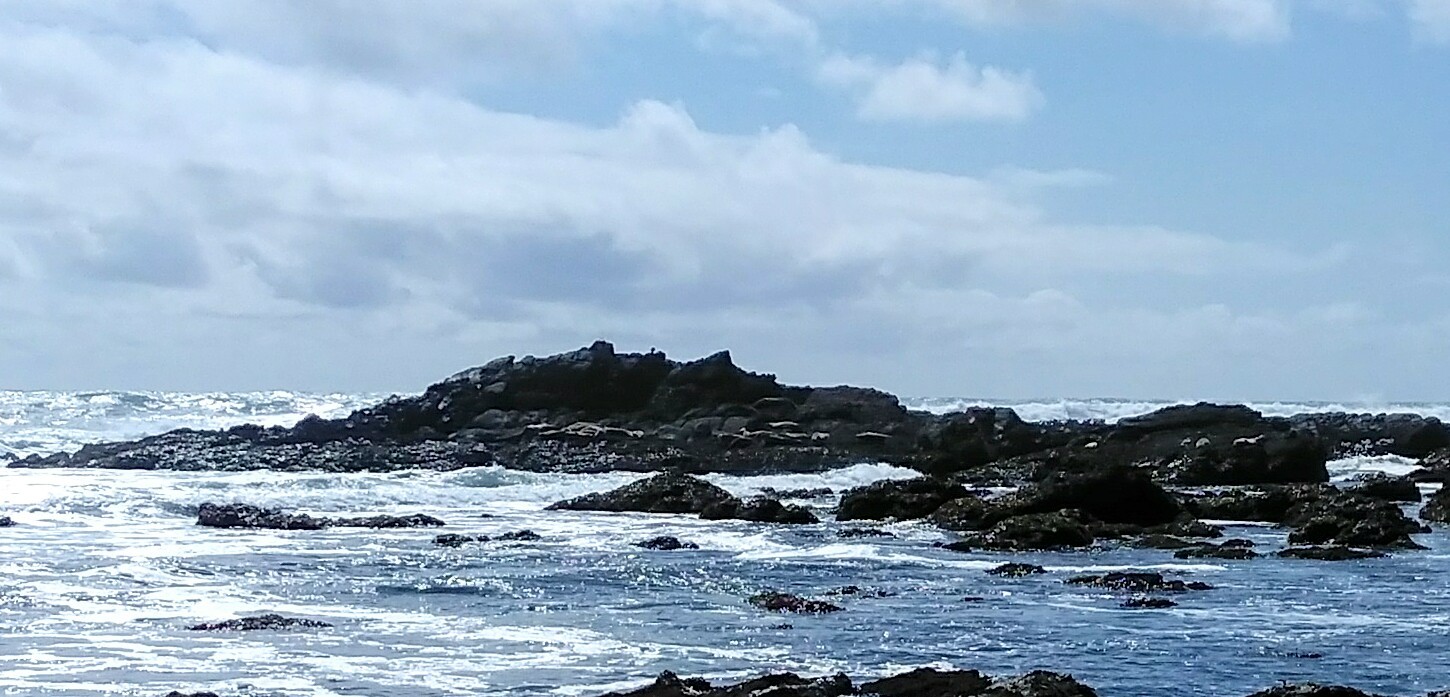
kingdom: Animalia
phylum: Chordata
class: Mammalia
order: Carnivora
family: Phocidae
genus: Phoca
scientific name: Phoca vitulina
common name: Harbor seal
